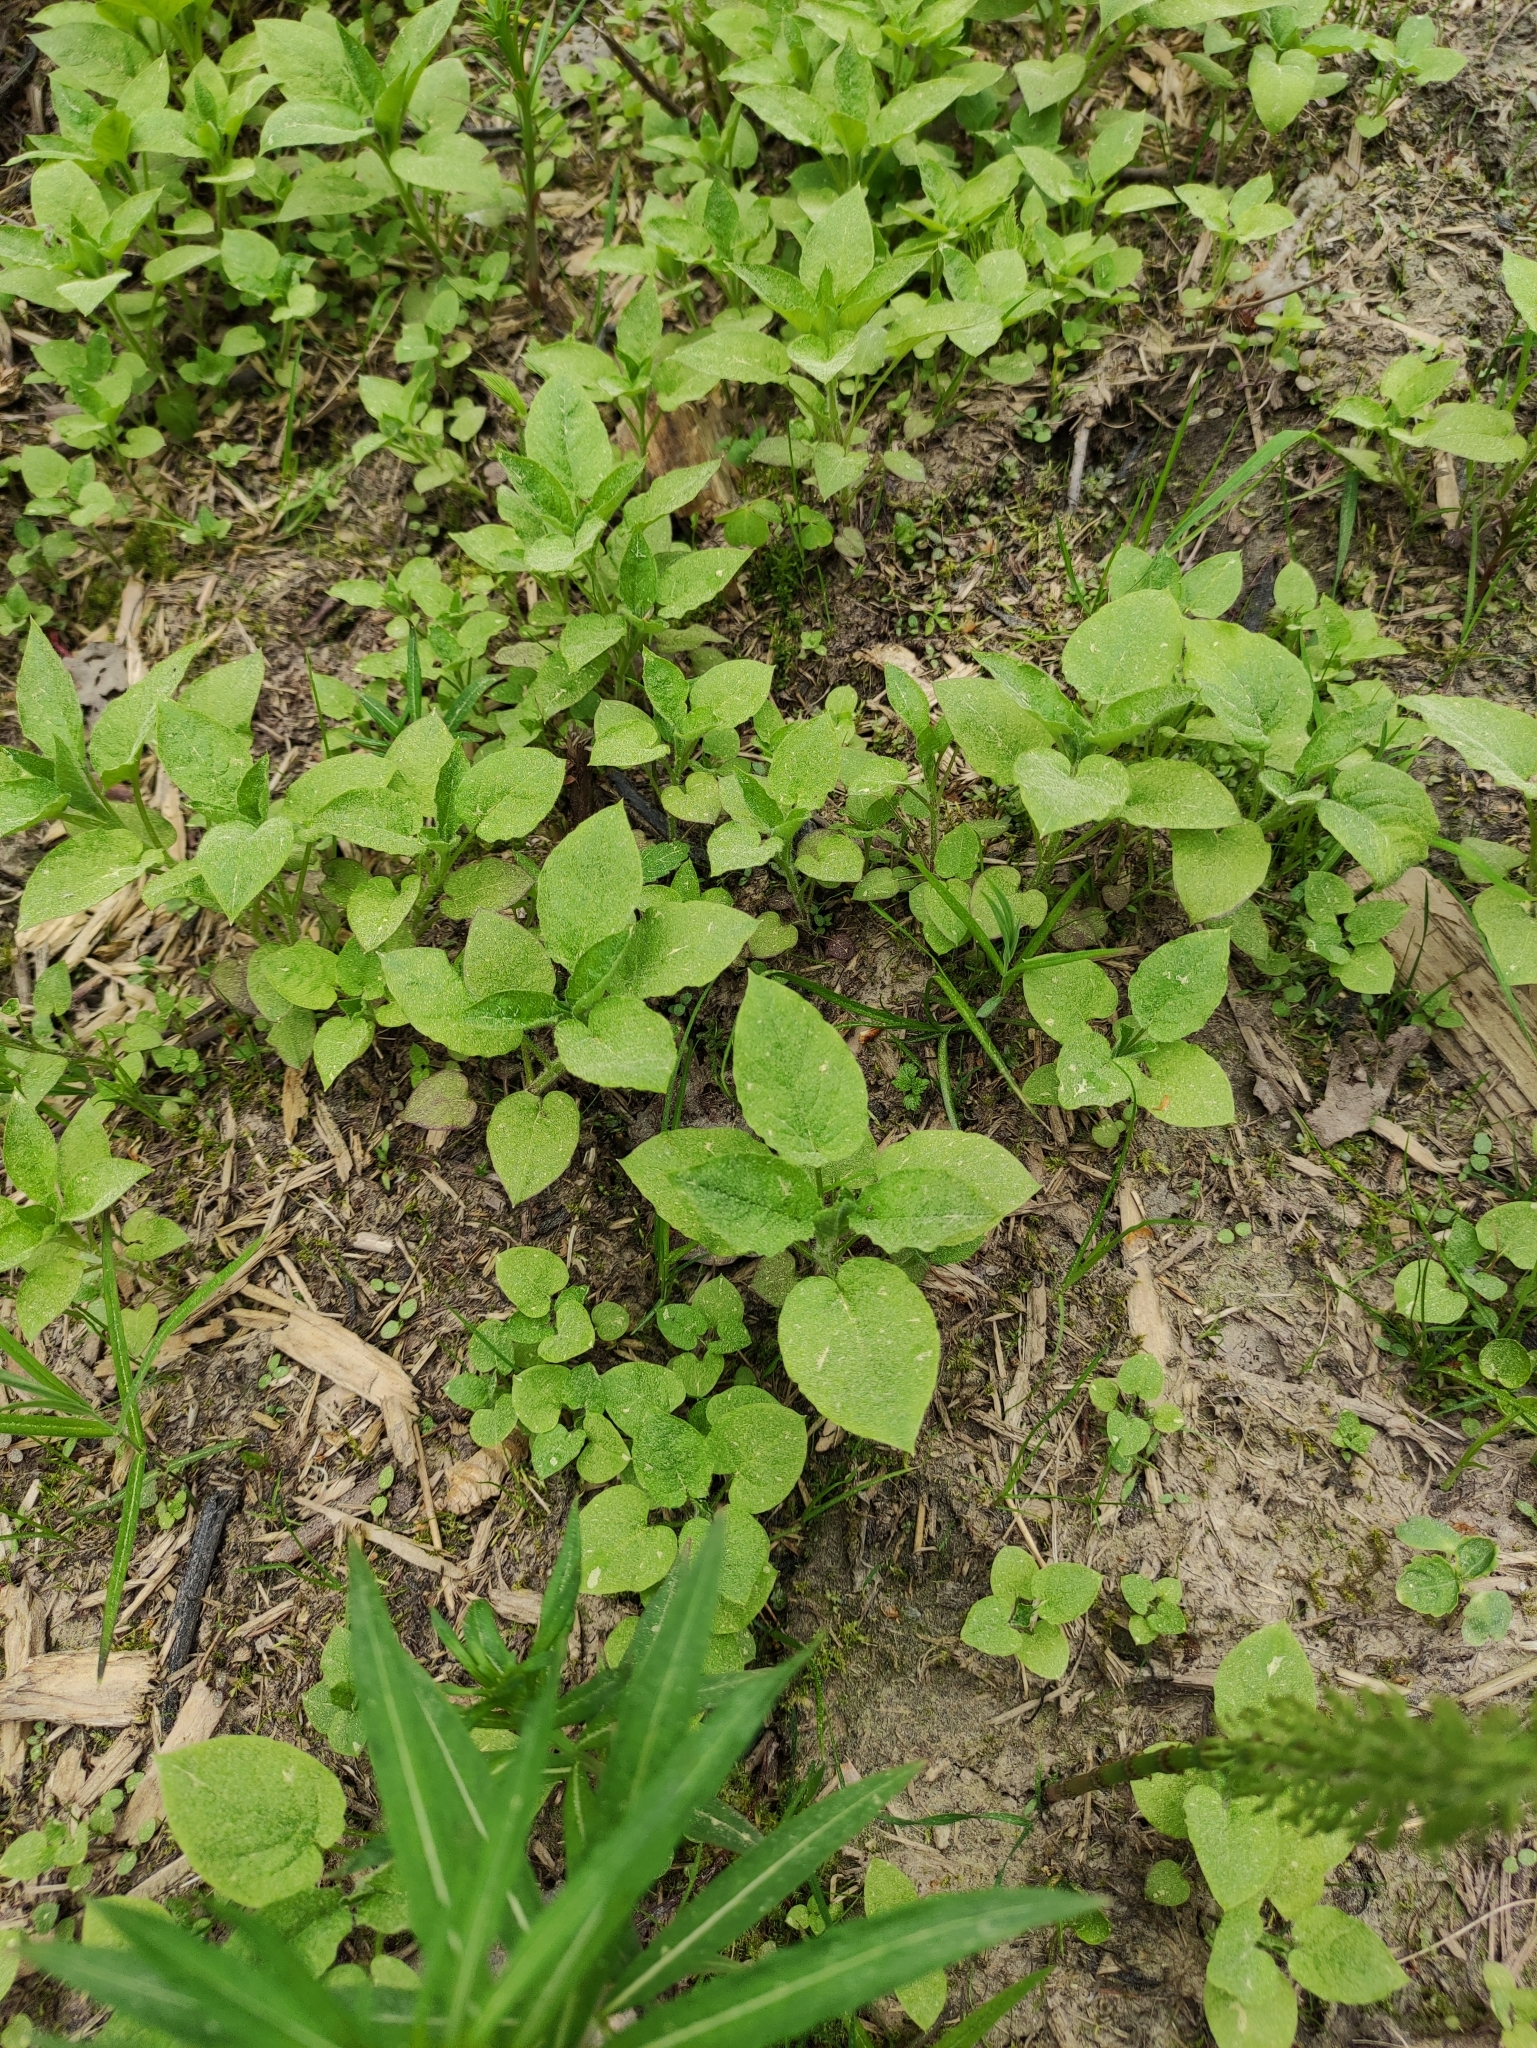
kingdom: Plantae
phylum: Tracheophyta
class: Magnoliopsida
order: Caryophyllales
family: Caryophyllaceae
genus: Stellaria
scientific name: Stellaria nemorum
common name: Wood stitchwort
